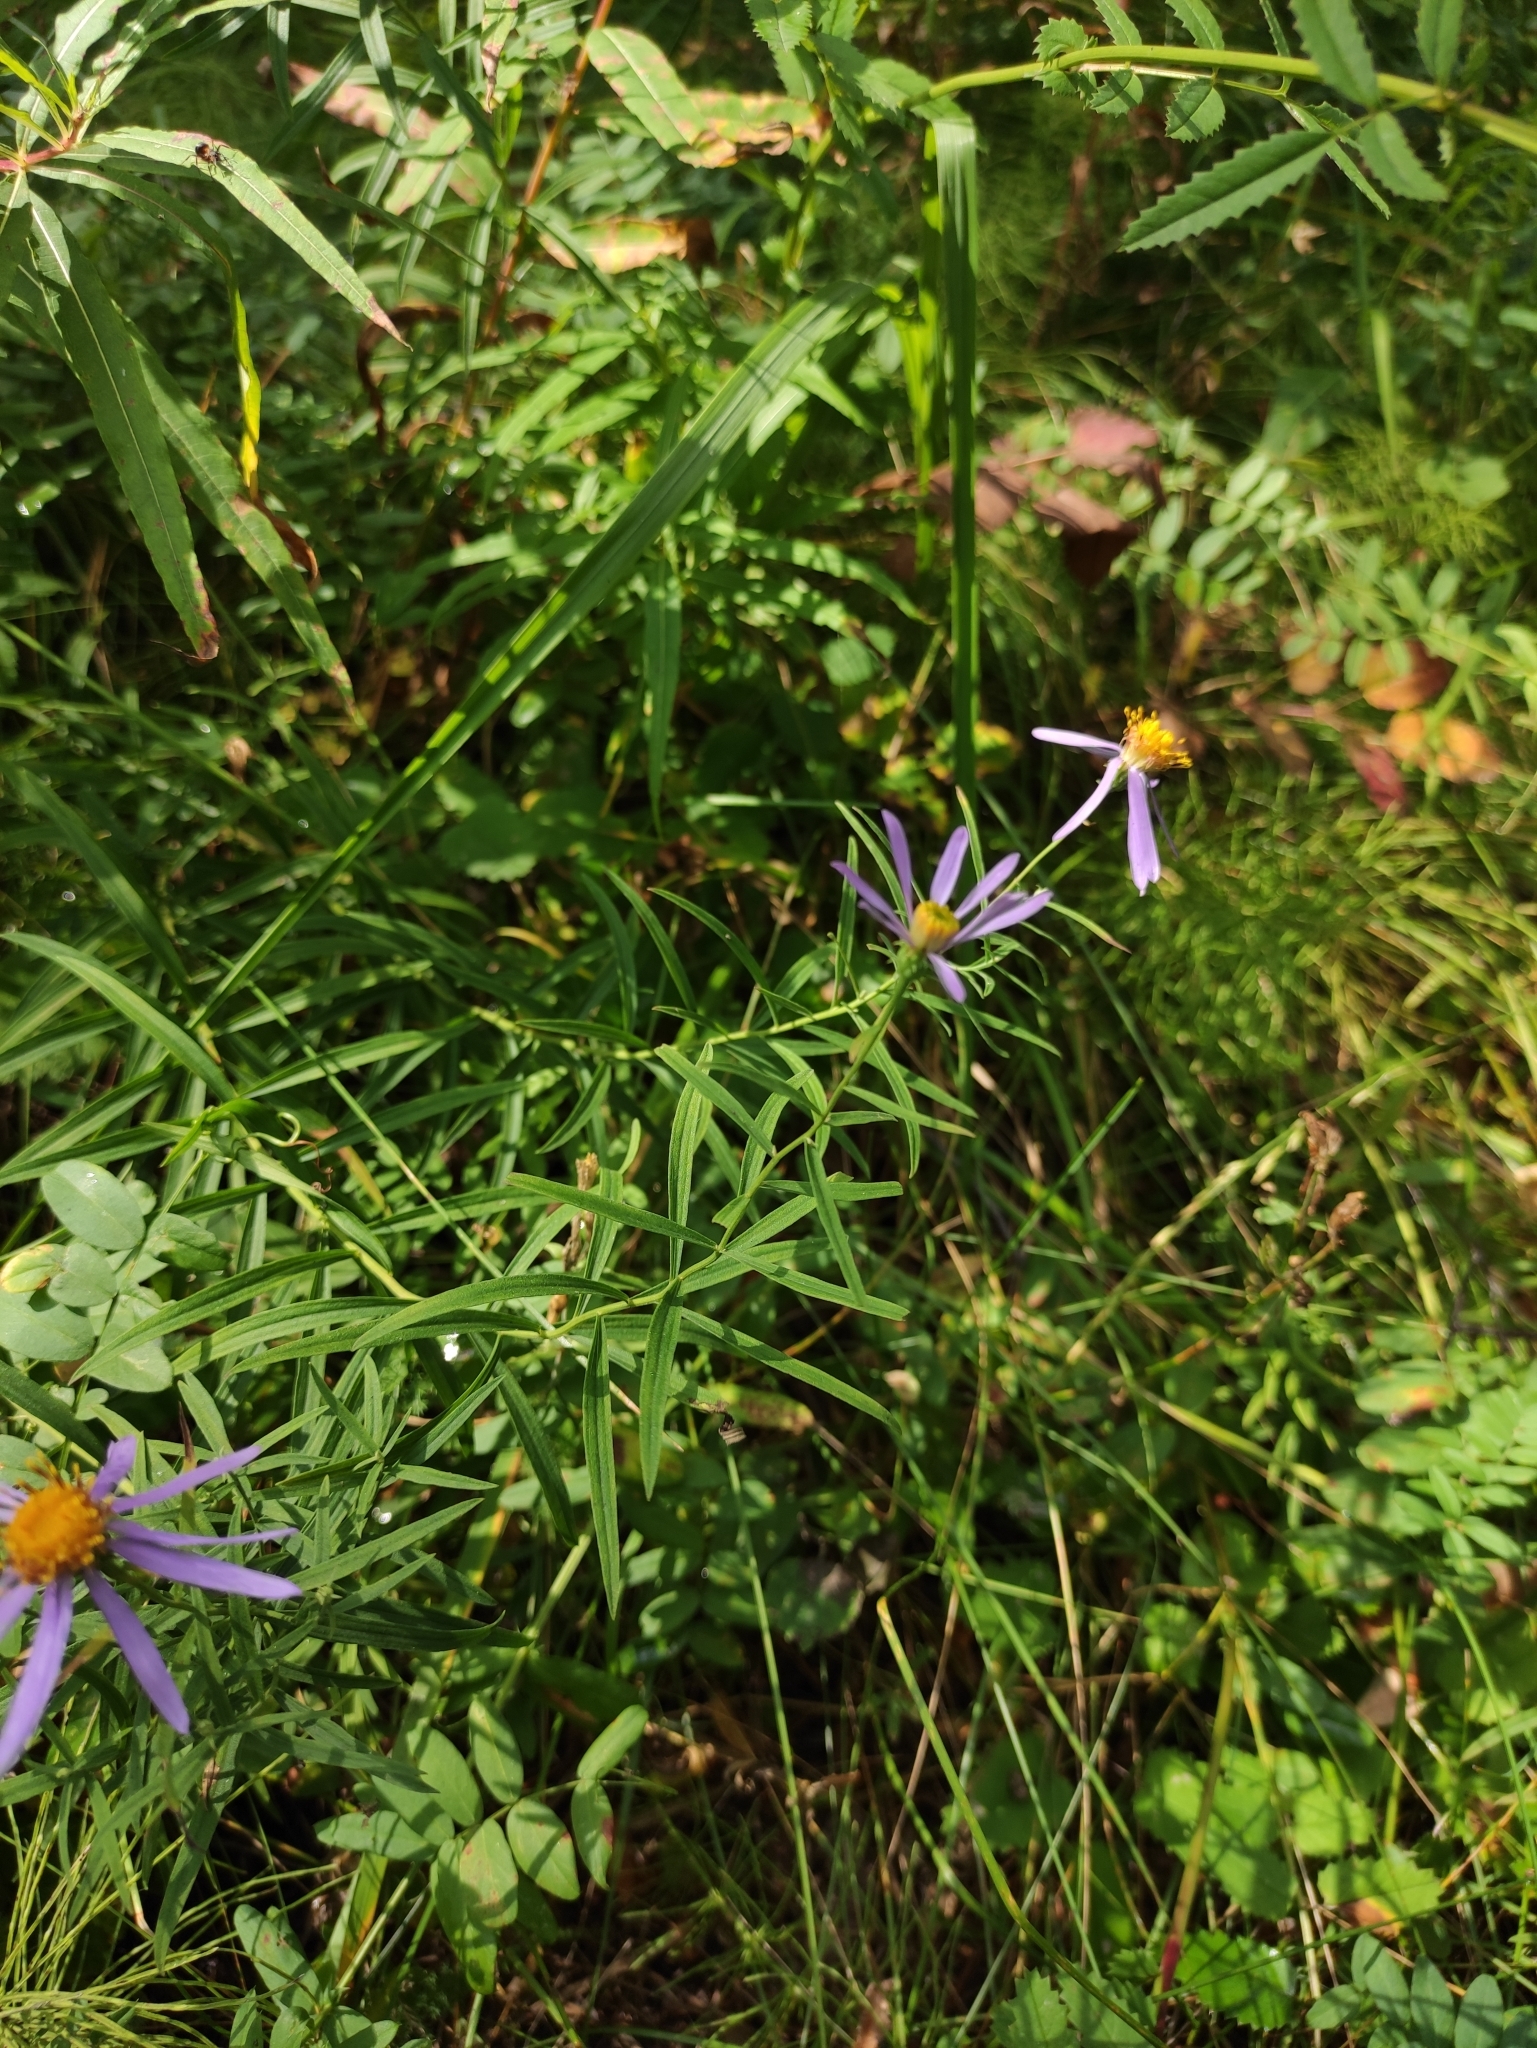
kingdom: Plantae
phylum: Tracheophyta
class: Magnoliopsida
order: Asterales
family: Asteraceae
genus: Galatella
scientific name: Galatella dahurica
